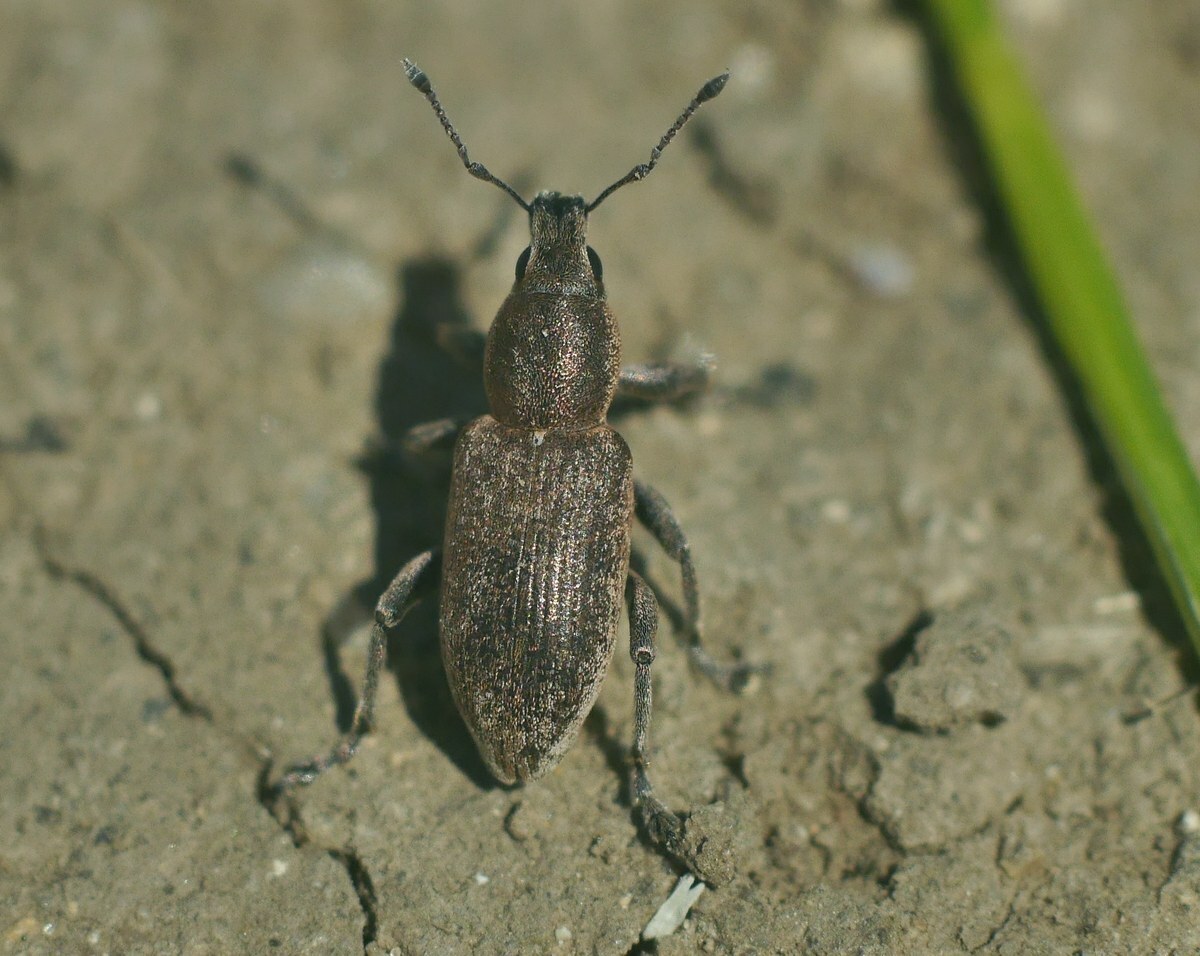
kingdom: Animalia
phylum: Arthropoda
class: Insecta
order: Coleoptera
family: Curculionidae
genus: Tanymecus
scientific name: Tanymecus palliatus
